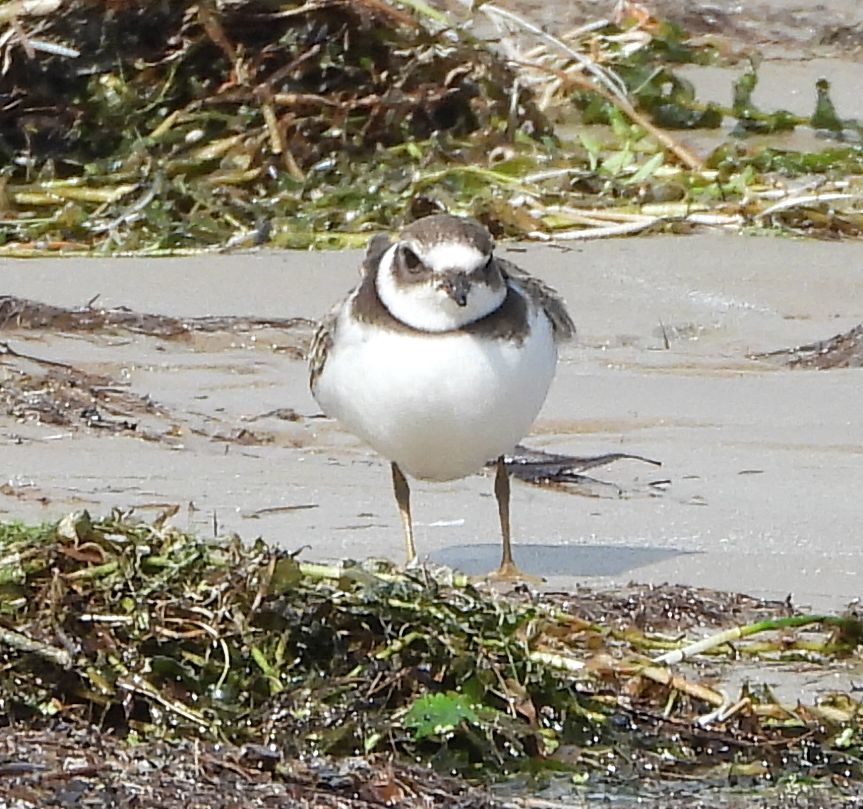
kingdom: Animalia
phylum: Chordata
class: Aves
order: Charadriiformes
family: Charadriidae
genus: Charadrius
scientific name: Charadrius semipalmatus
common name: Semipalmated plover
